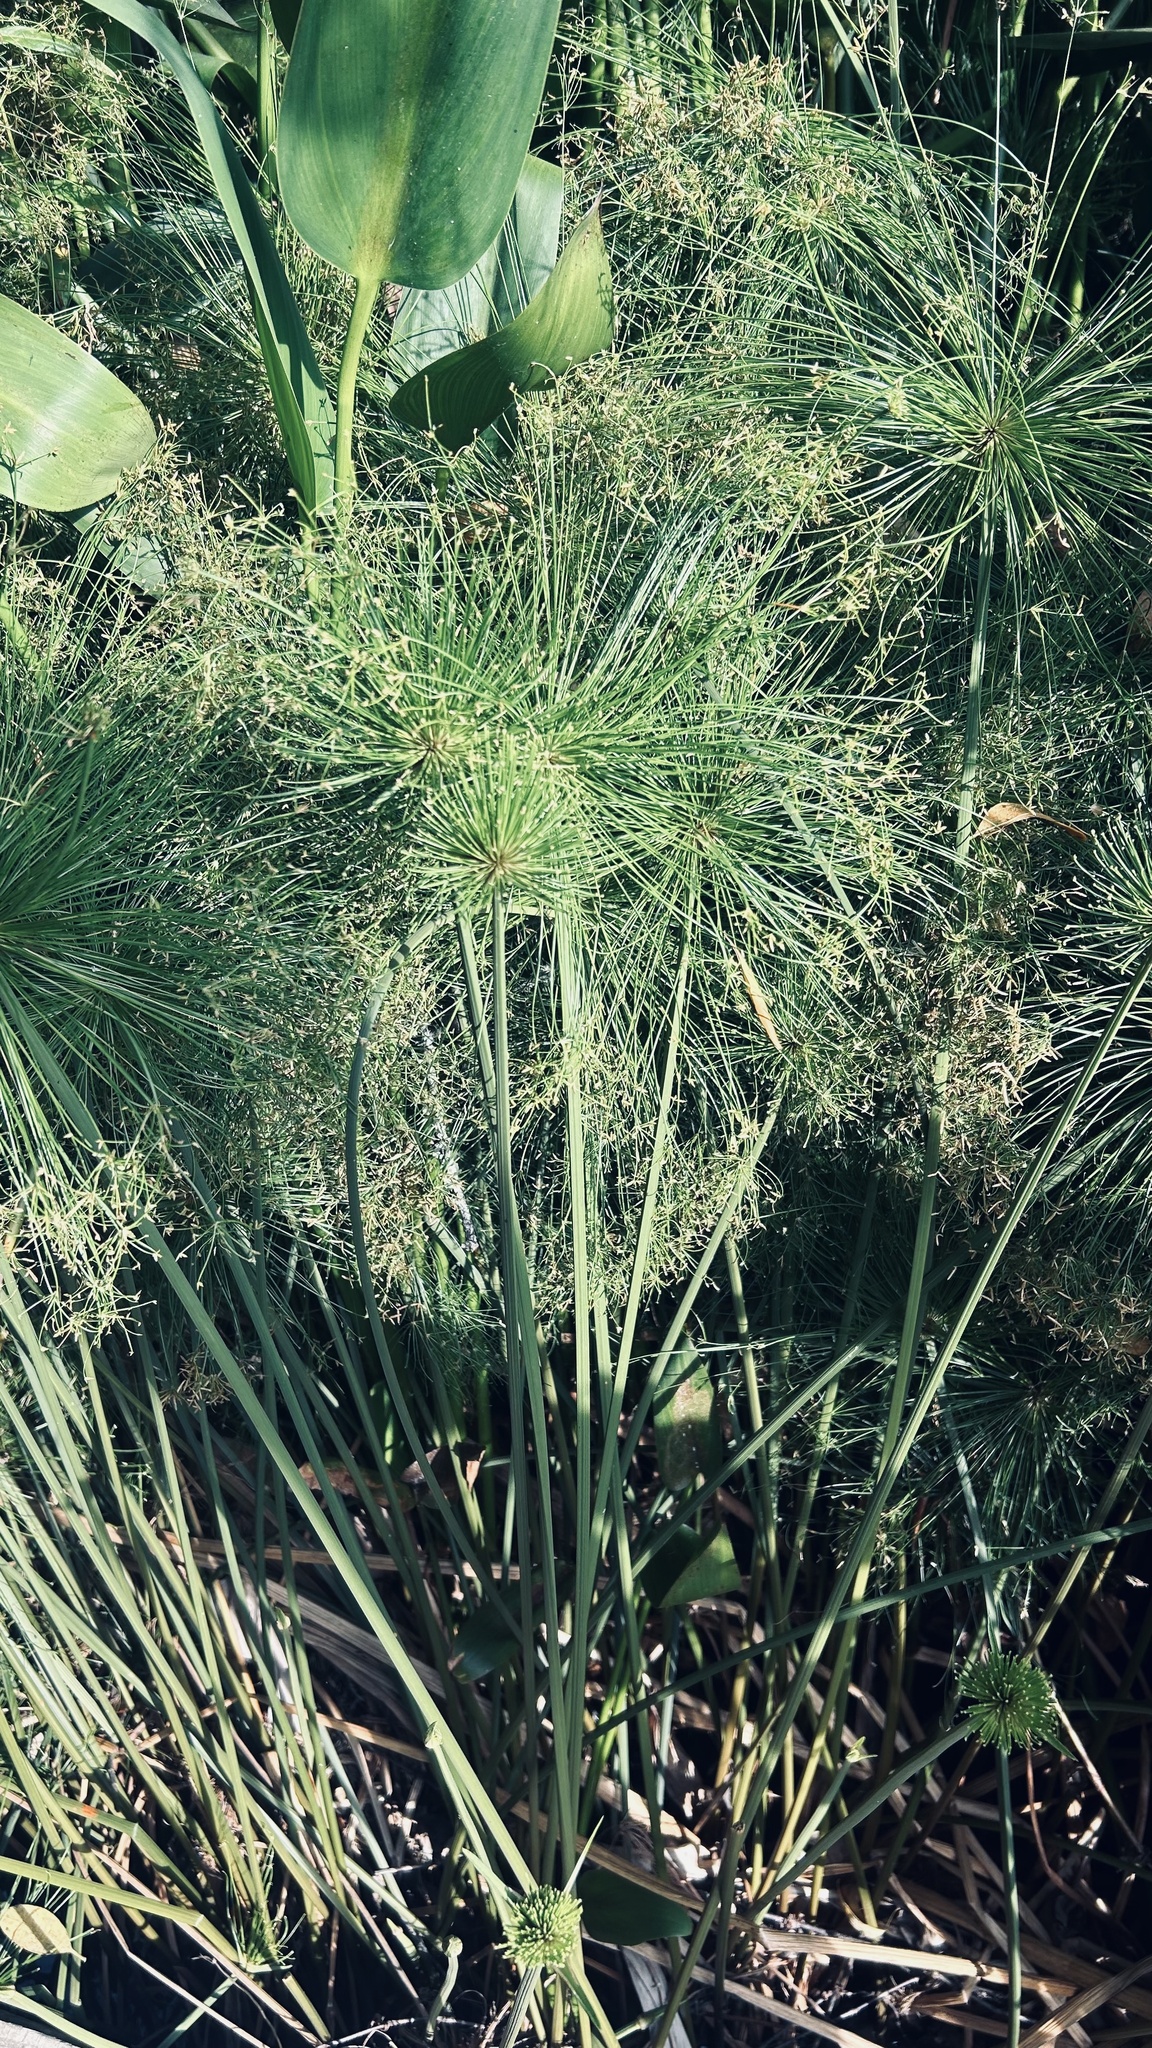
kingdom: Plantae
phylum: Tracheophyta
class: Liliopsida
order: Poales
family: Cyperaceae
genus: Cyperus
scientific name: Cyperus prolifer
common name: Miniature flatsedge
